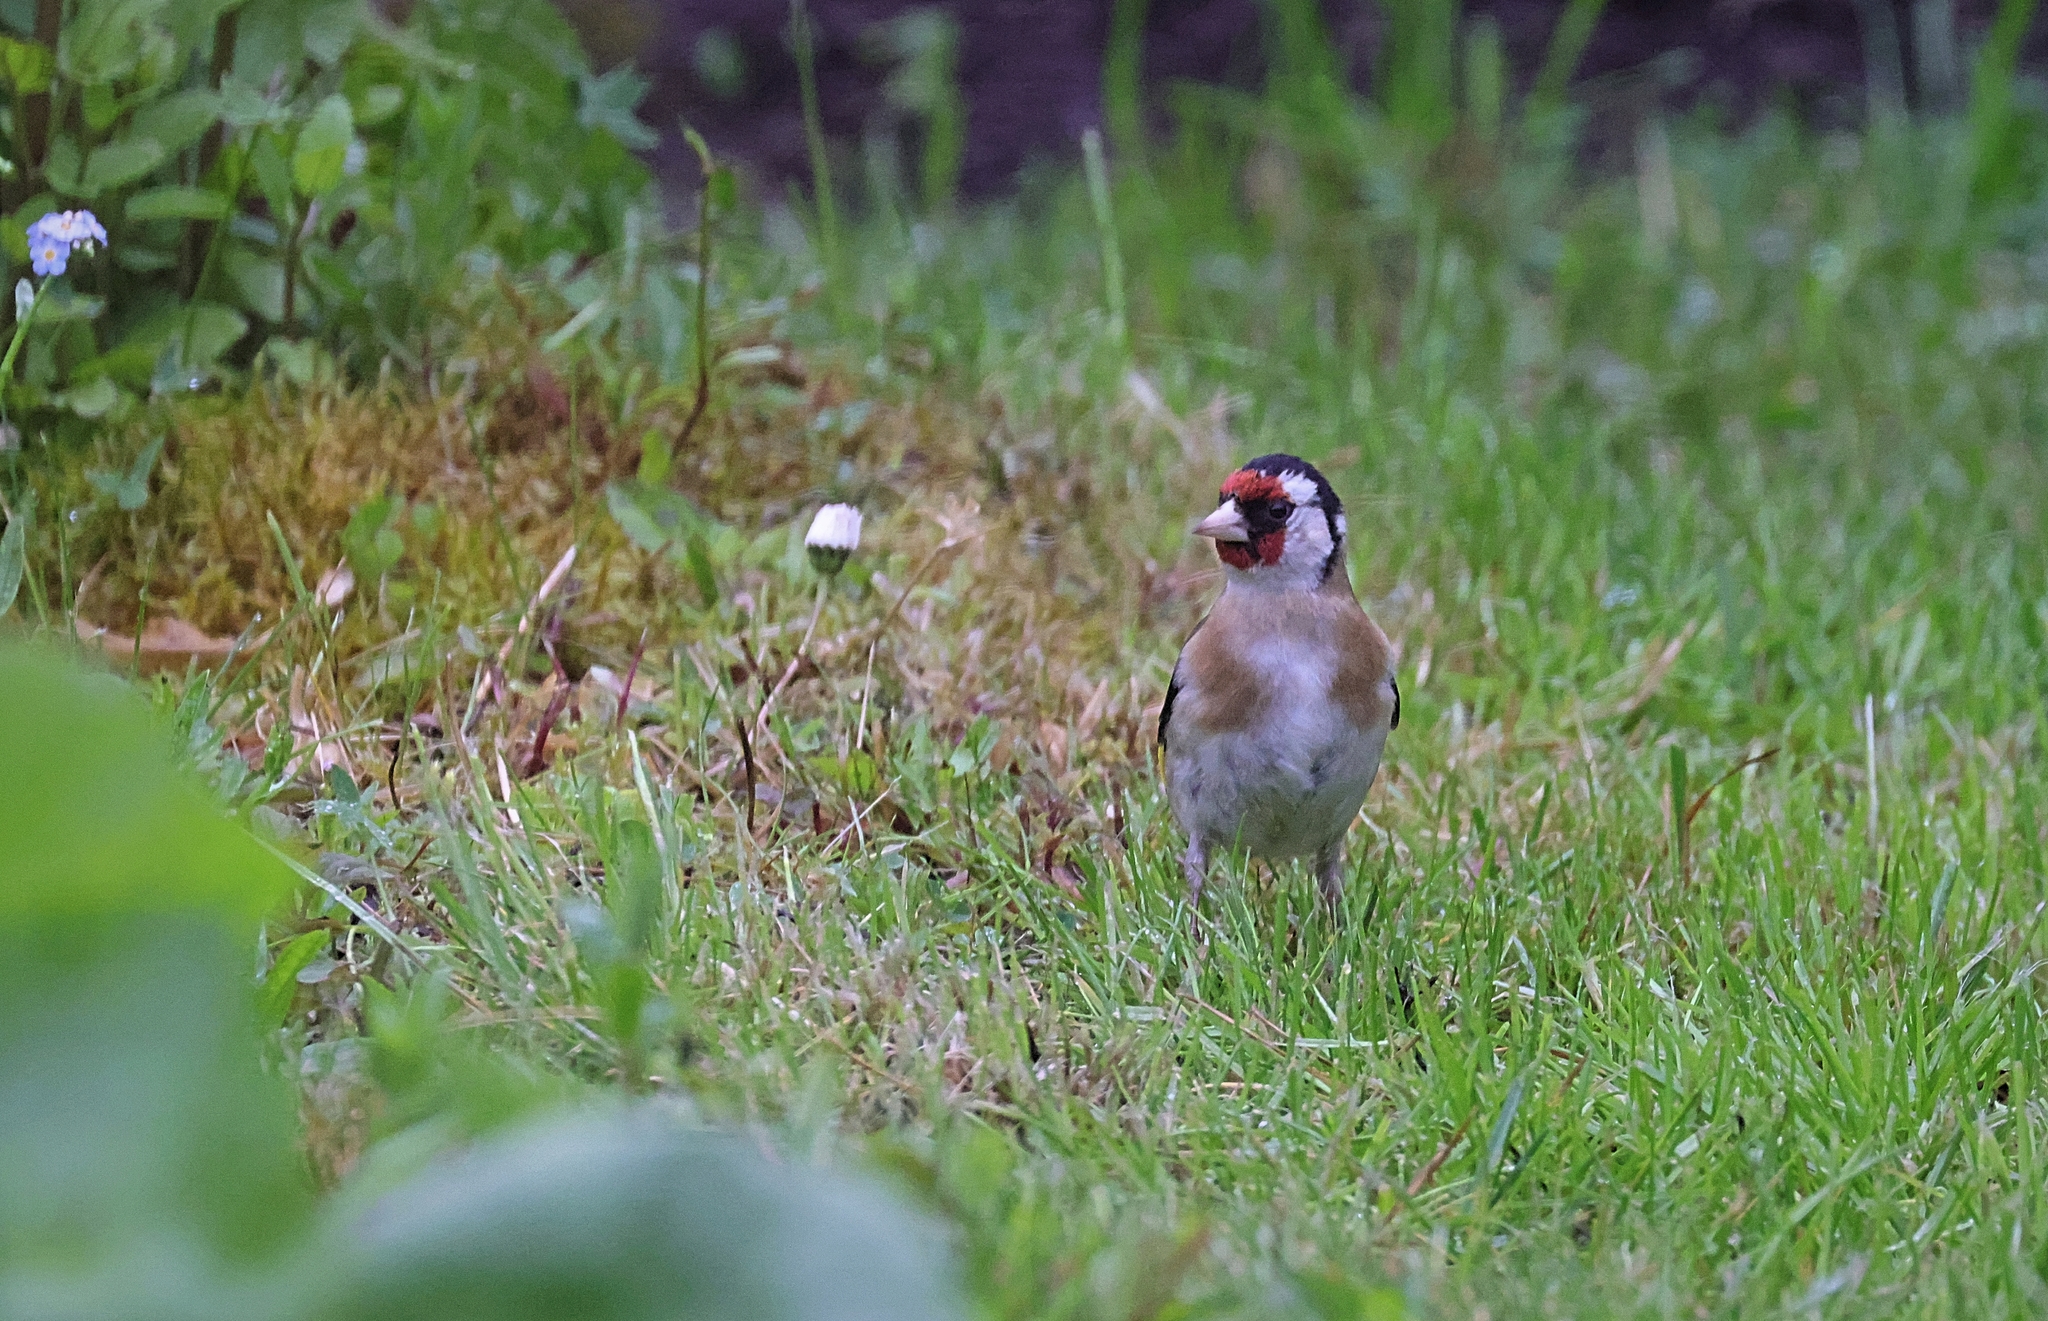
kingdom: Animalia
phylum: Chordata
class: Aves
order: Passeriformes
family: Fringillidae
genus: Carduelis
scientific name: Carduelis carduelis
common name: European goldfinch
